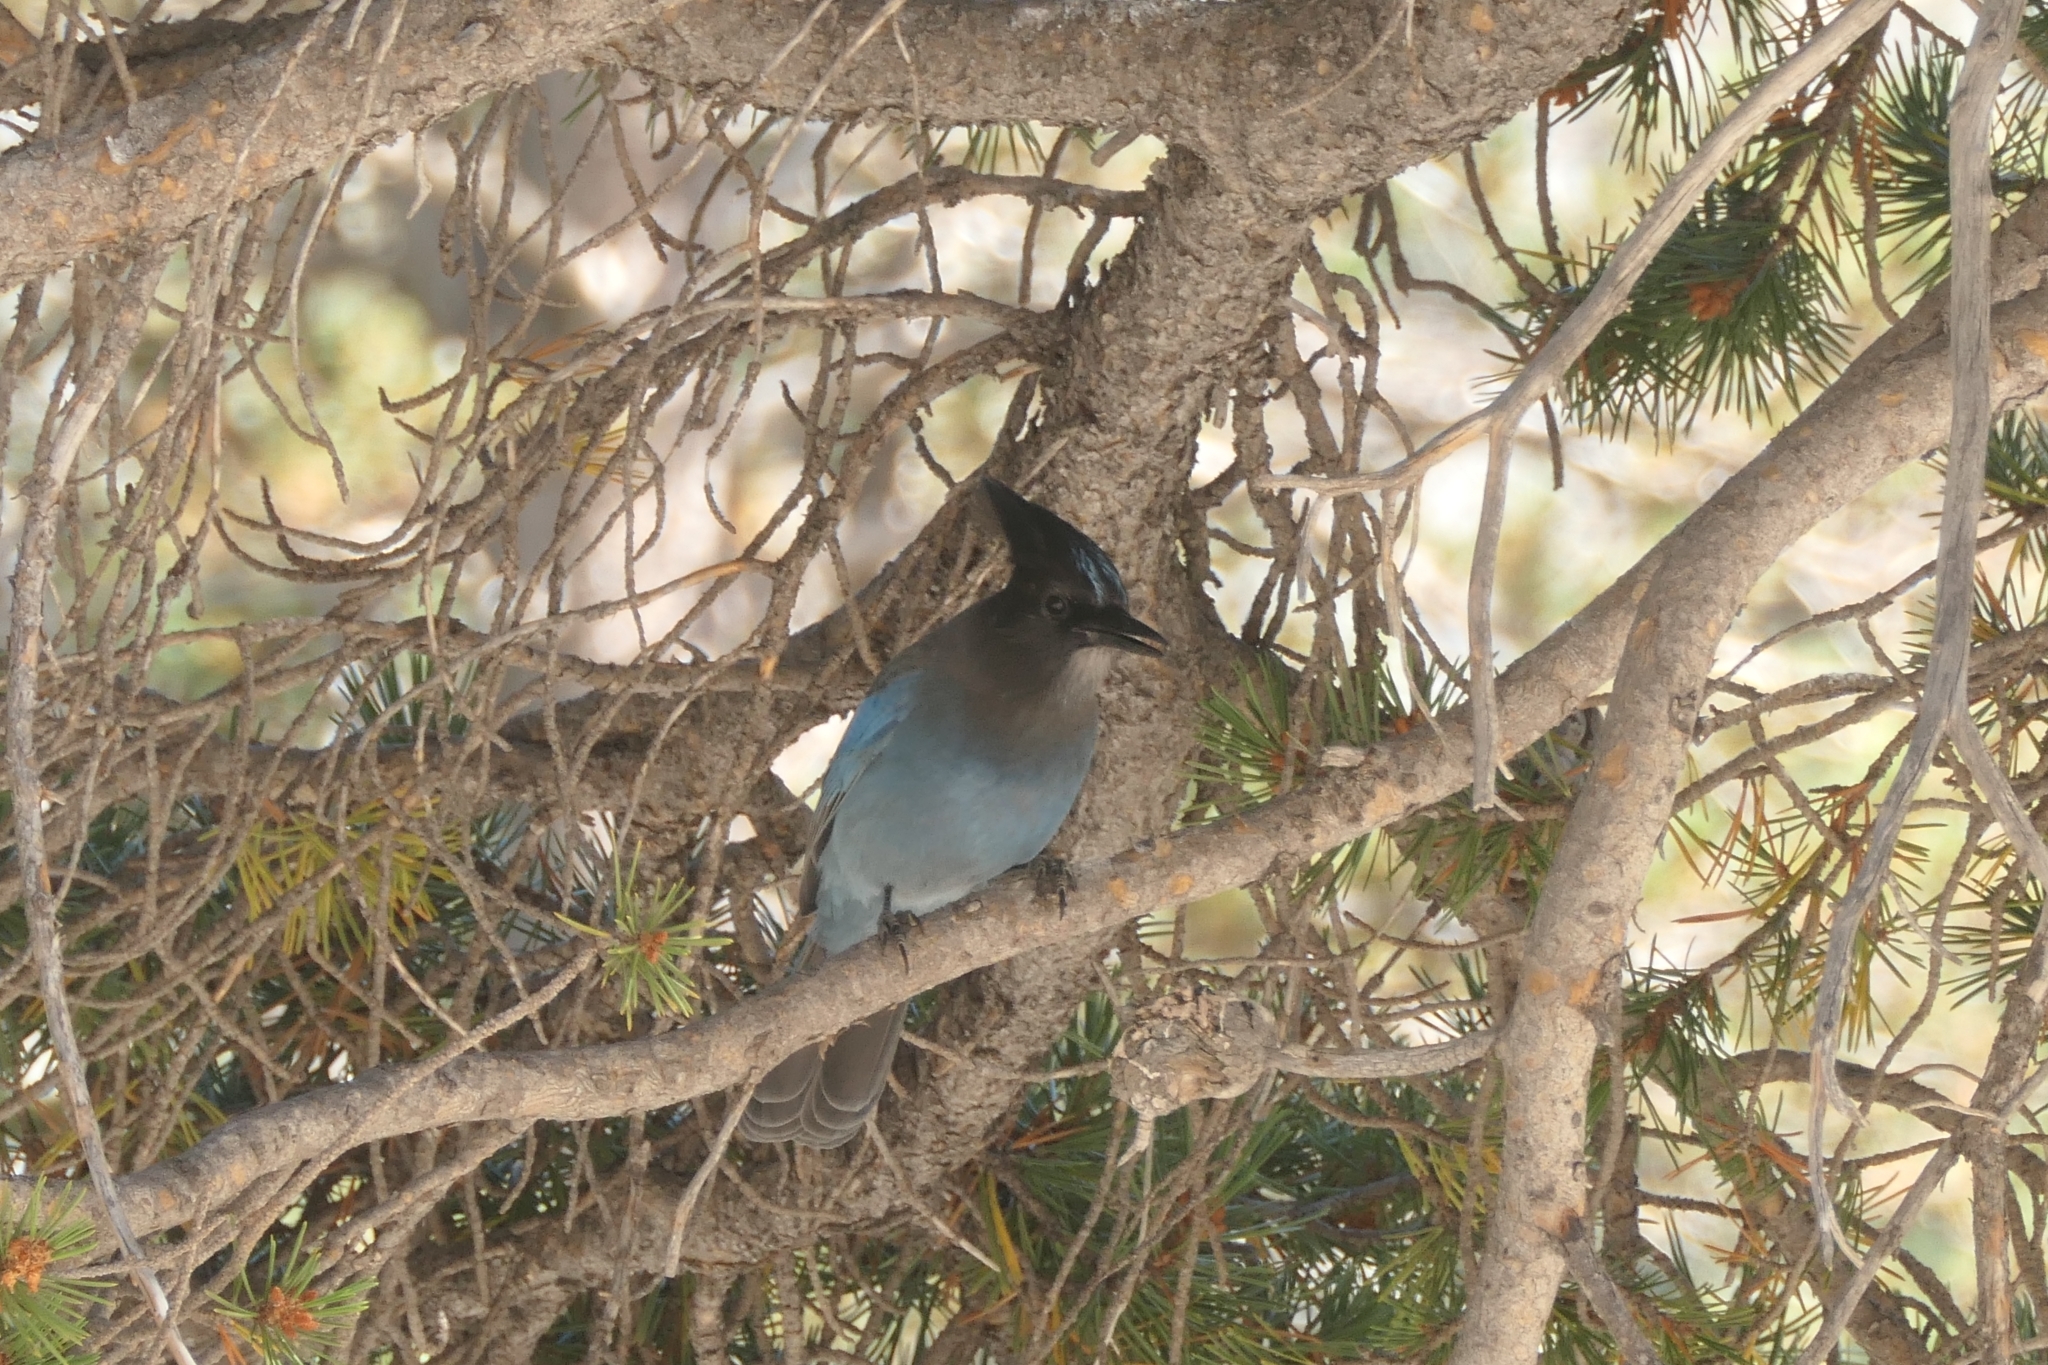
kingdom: Animalia
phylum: Chordata
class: Aves
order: Passeriformes
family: Corvidae
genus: Cyanocitta
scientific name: Cyanocitta stelleri
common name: Steller's jay
